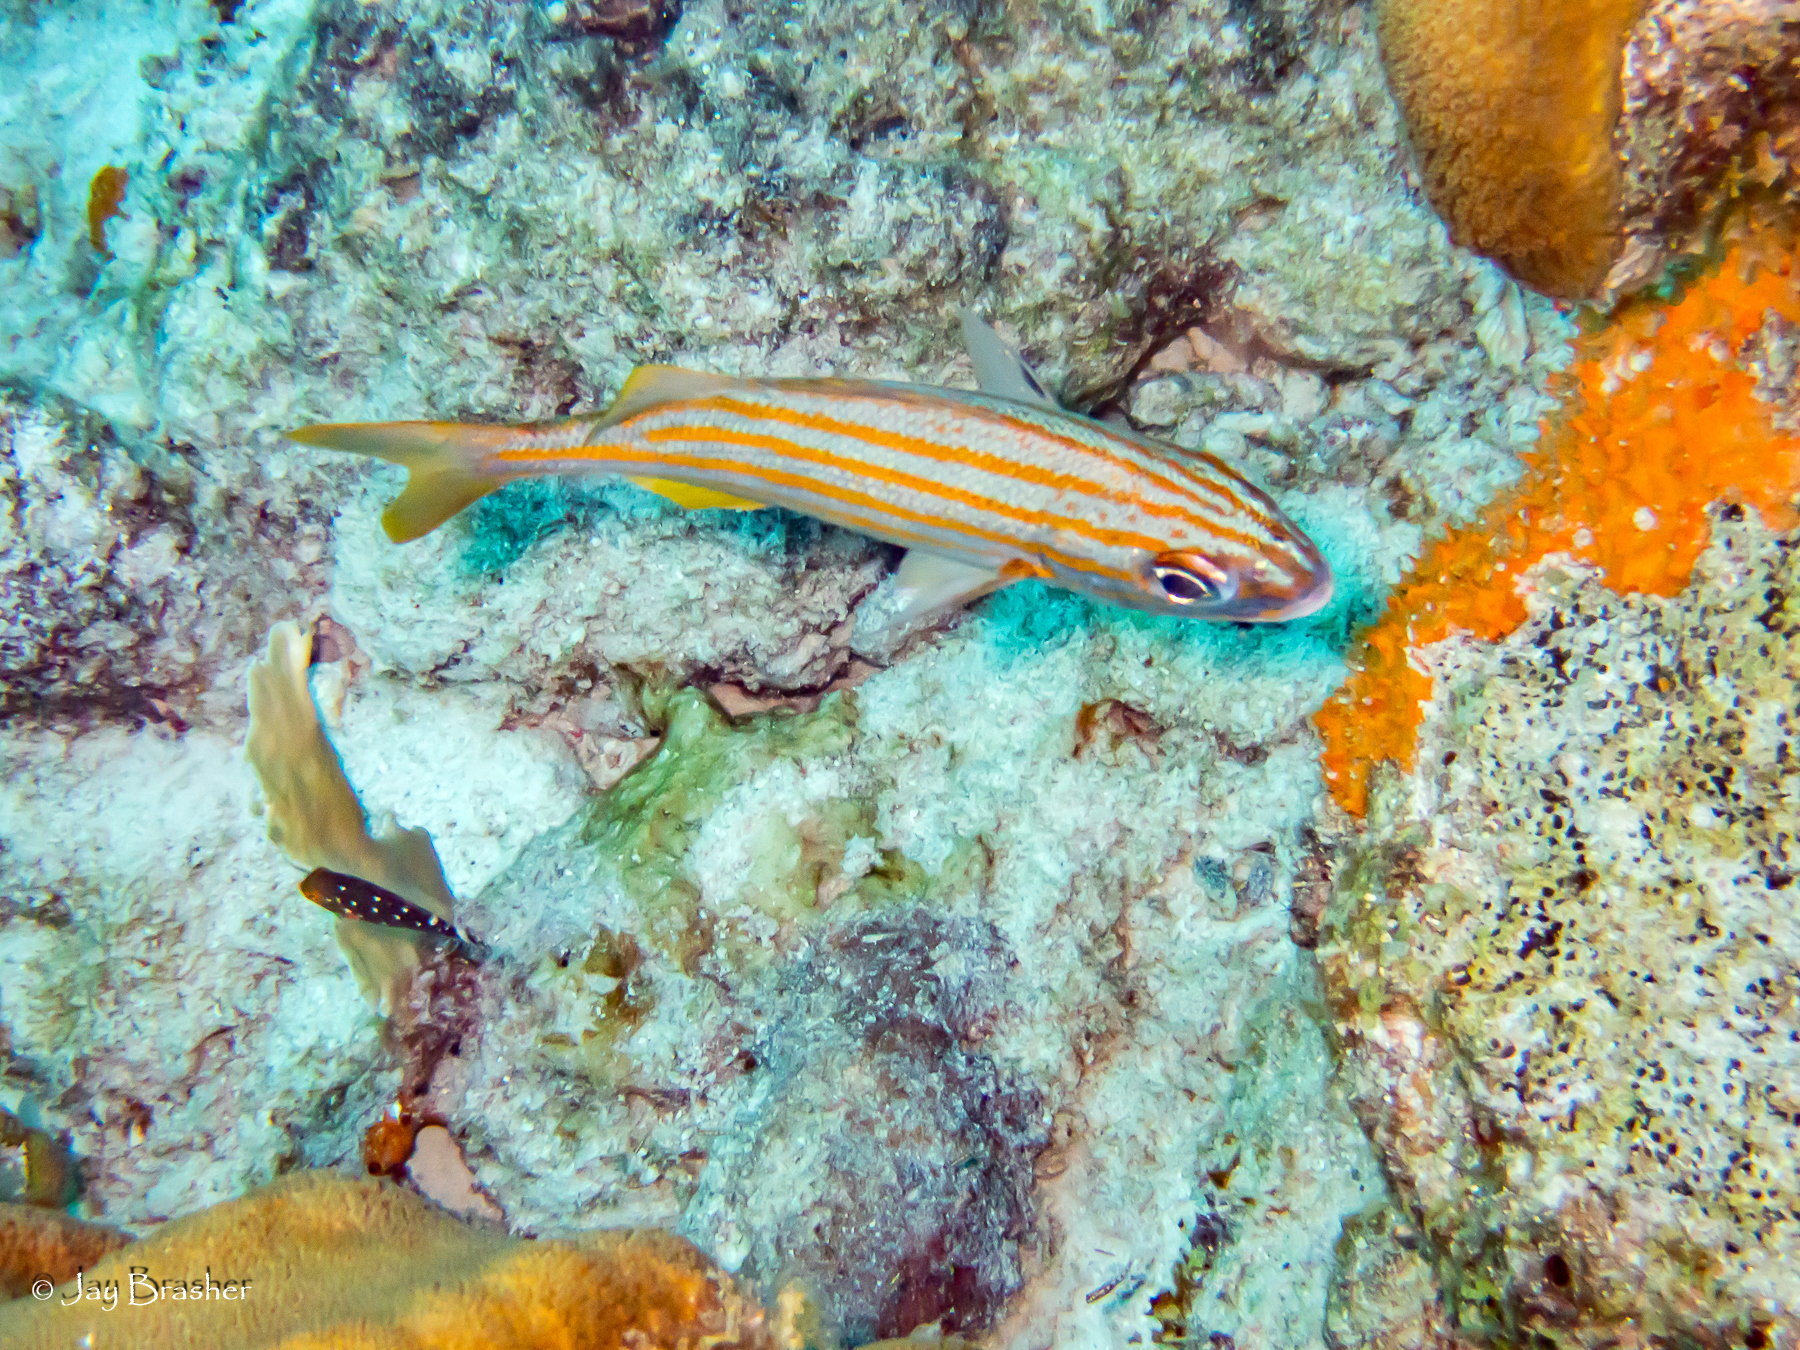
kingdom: Animalia
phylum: Chordata
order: Perciformes
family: Scaridae
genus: Sparisoma
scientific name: Sparisoma viride
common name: Stoplight parrotfish
